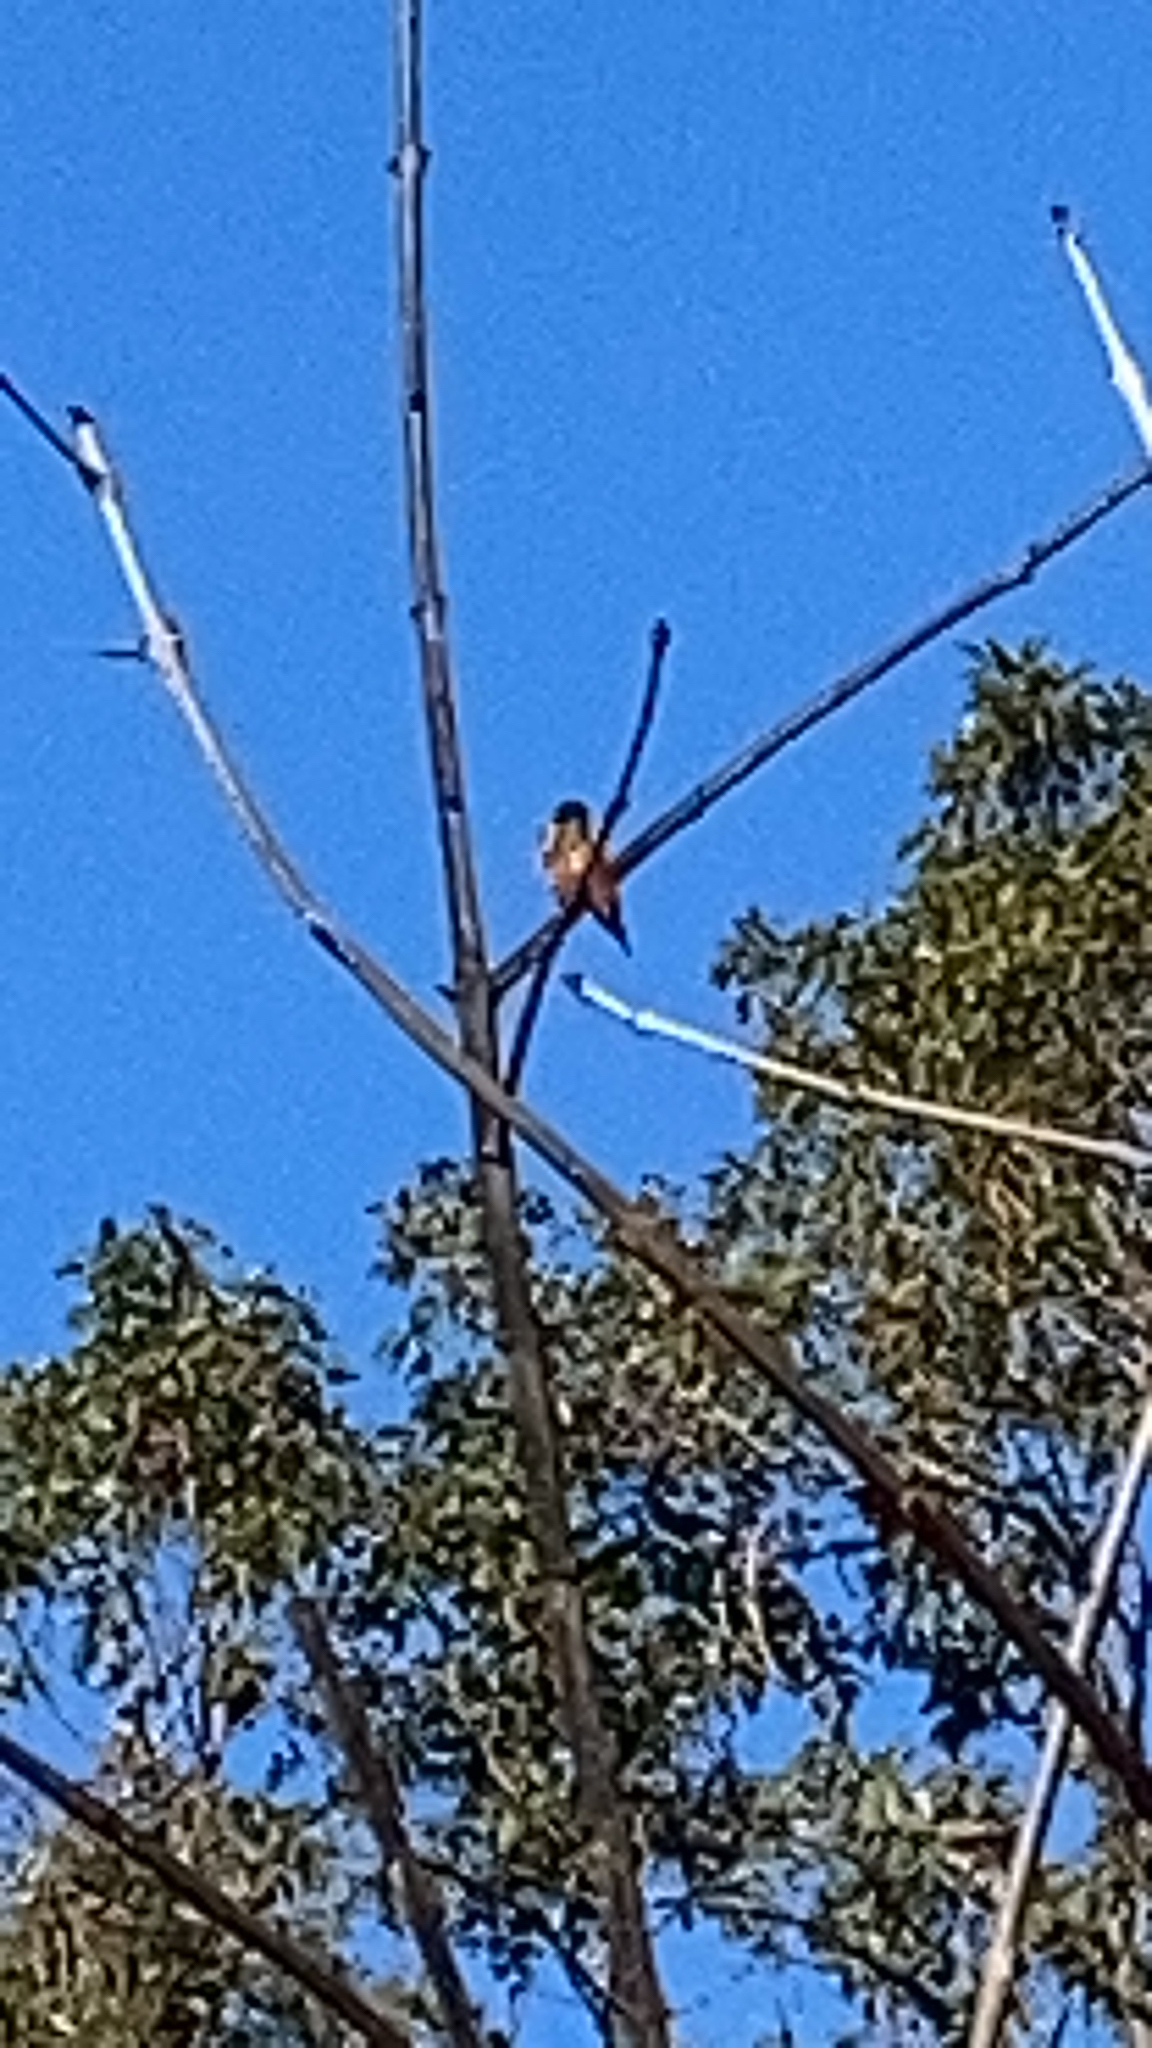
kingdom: Animalia
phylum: Chordata
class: Aves
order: Apodiformes
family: Trochilidae
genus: Selasphorus
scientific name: Selasphorus sasin
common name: Allen's hummingbird
